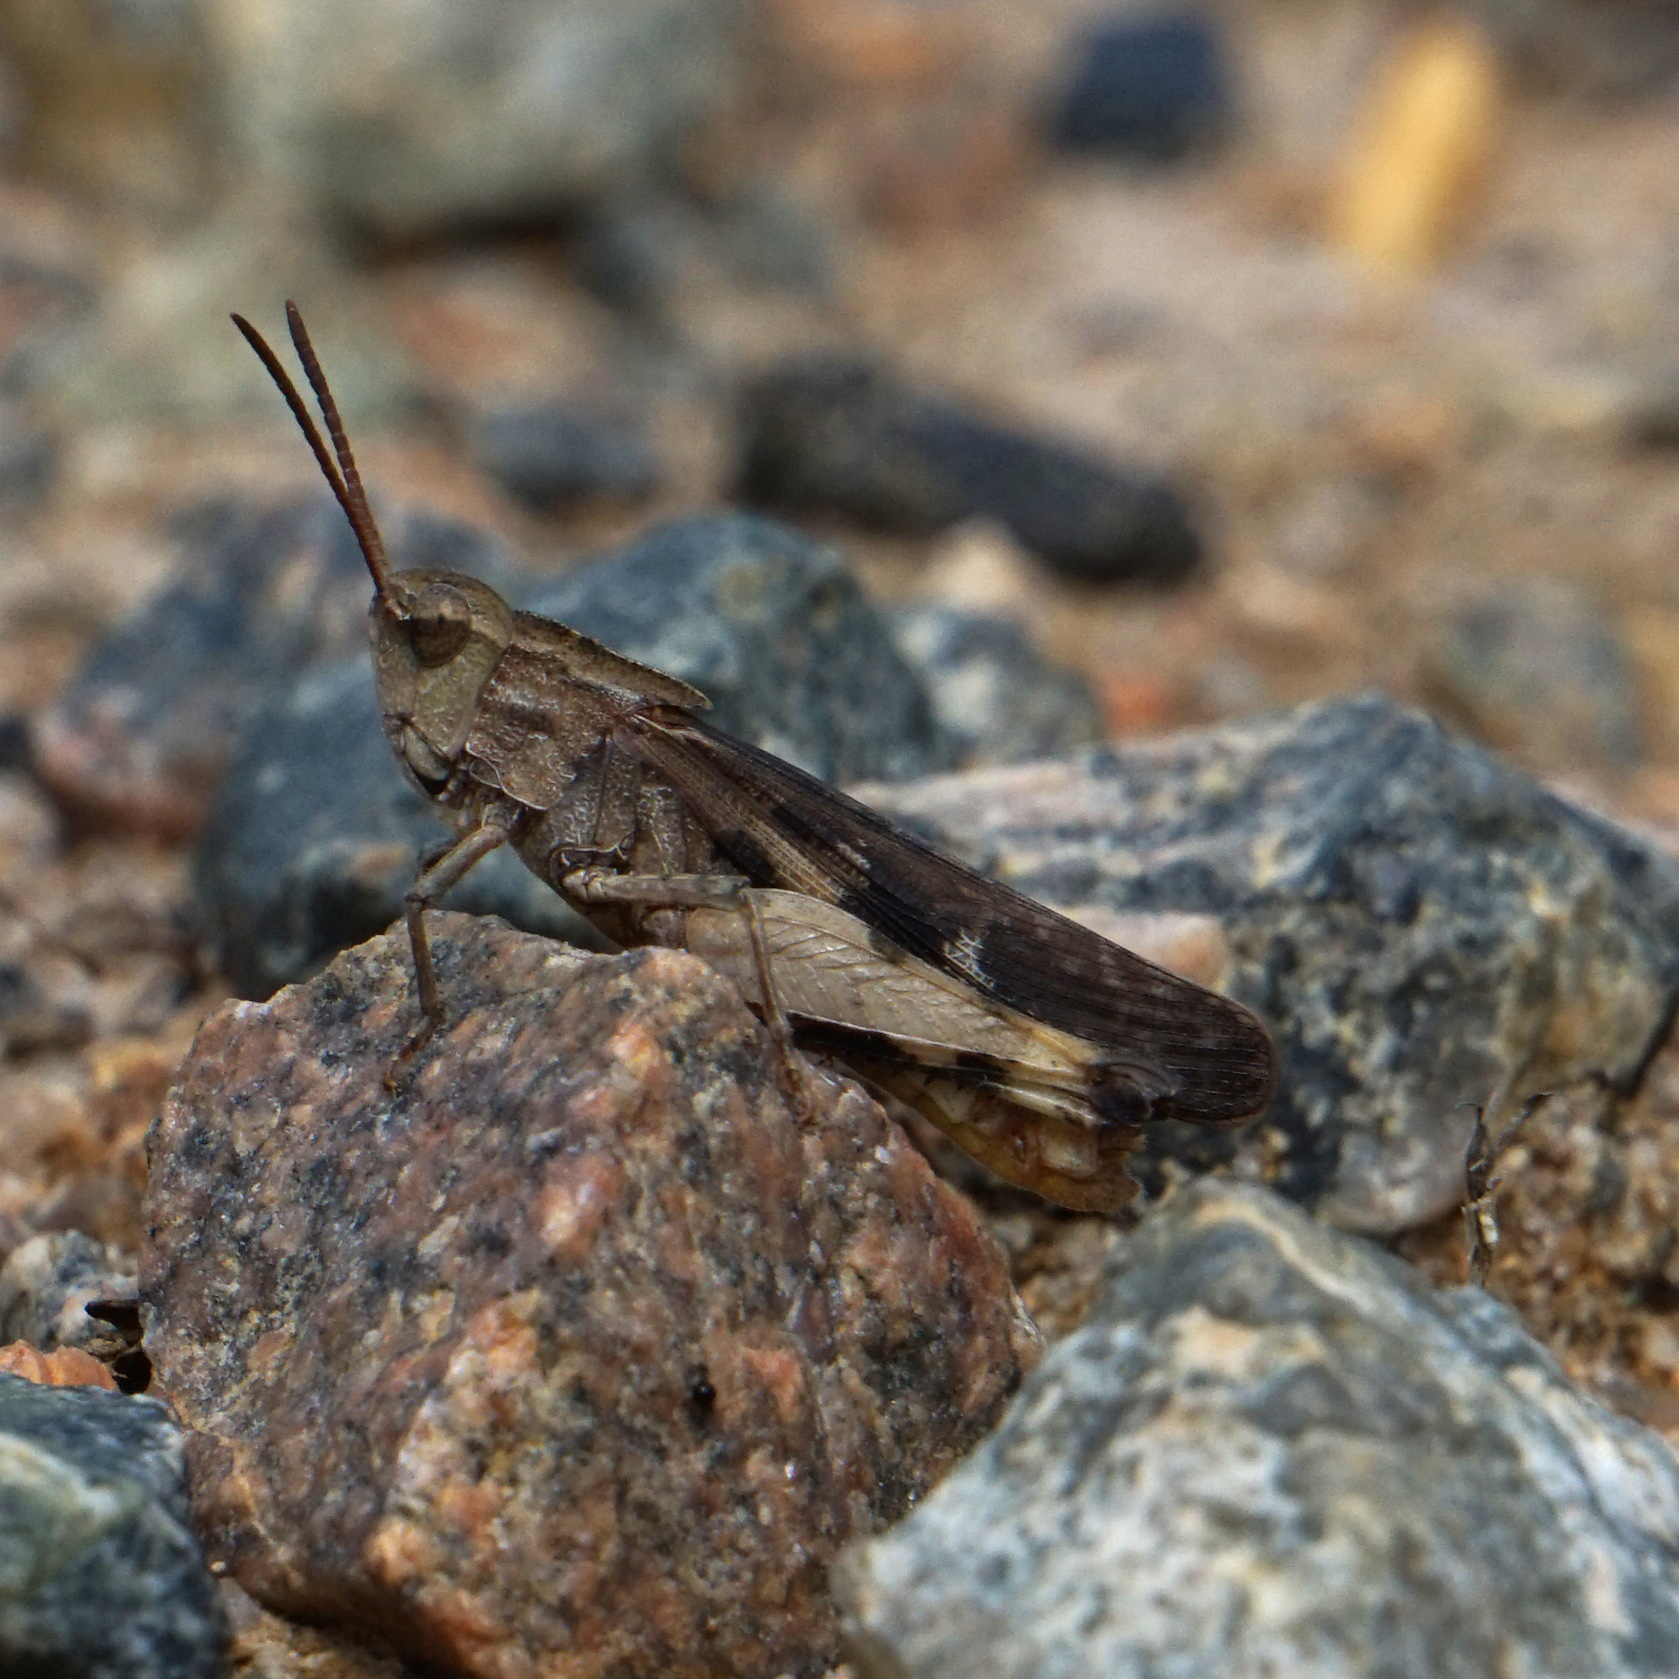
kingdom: Animalia
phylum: Arthropoda
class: Insecta
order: Orthoptera
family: Acrididae
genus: Chortophaga
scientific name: Chortophaga viridifasciata
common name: Green-striped grasshopper
